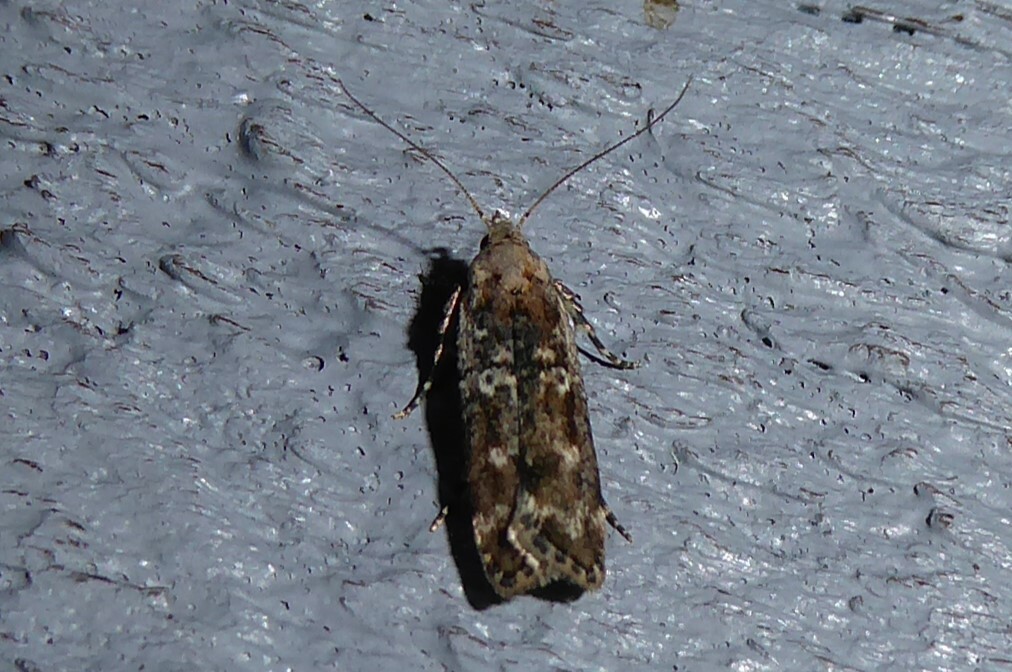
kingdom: Animalia
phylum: Arthropoda
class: Insecta
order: Lepidoptera
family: Gelechiidae
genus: Anisoplaca
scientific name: Anisoplaca achyrota
